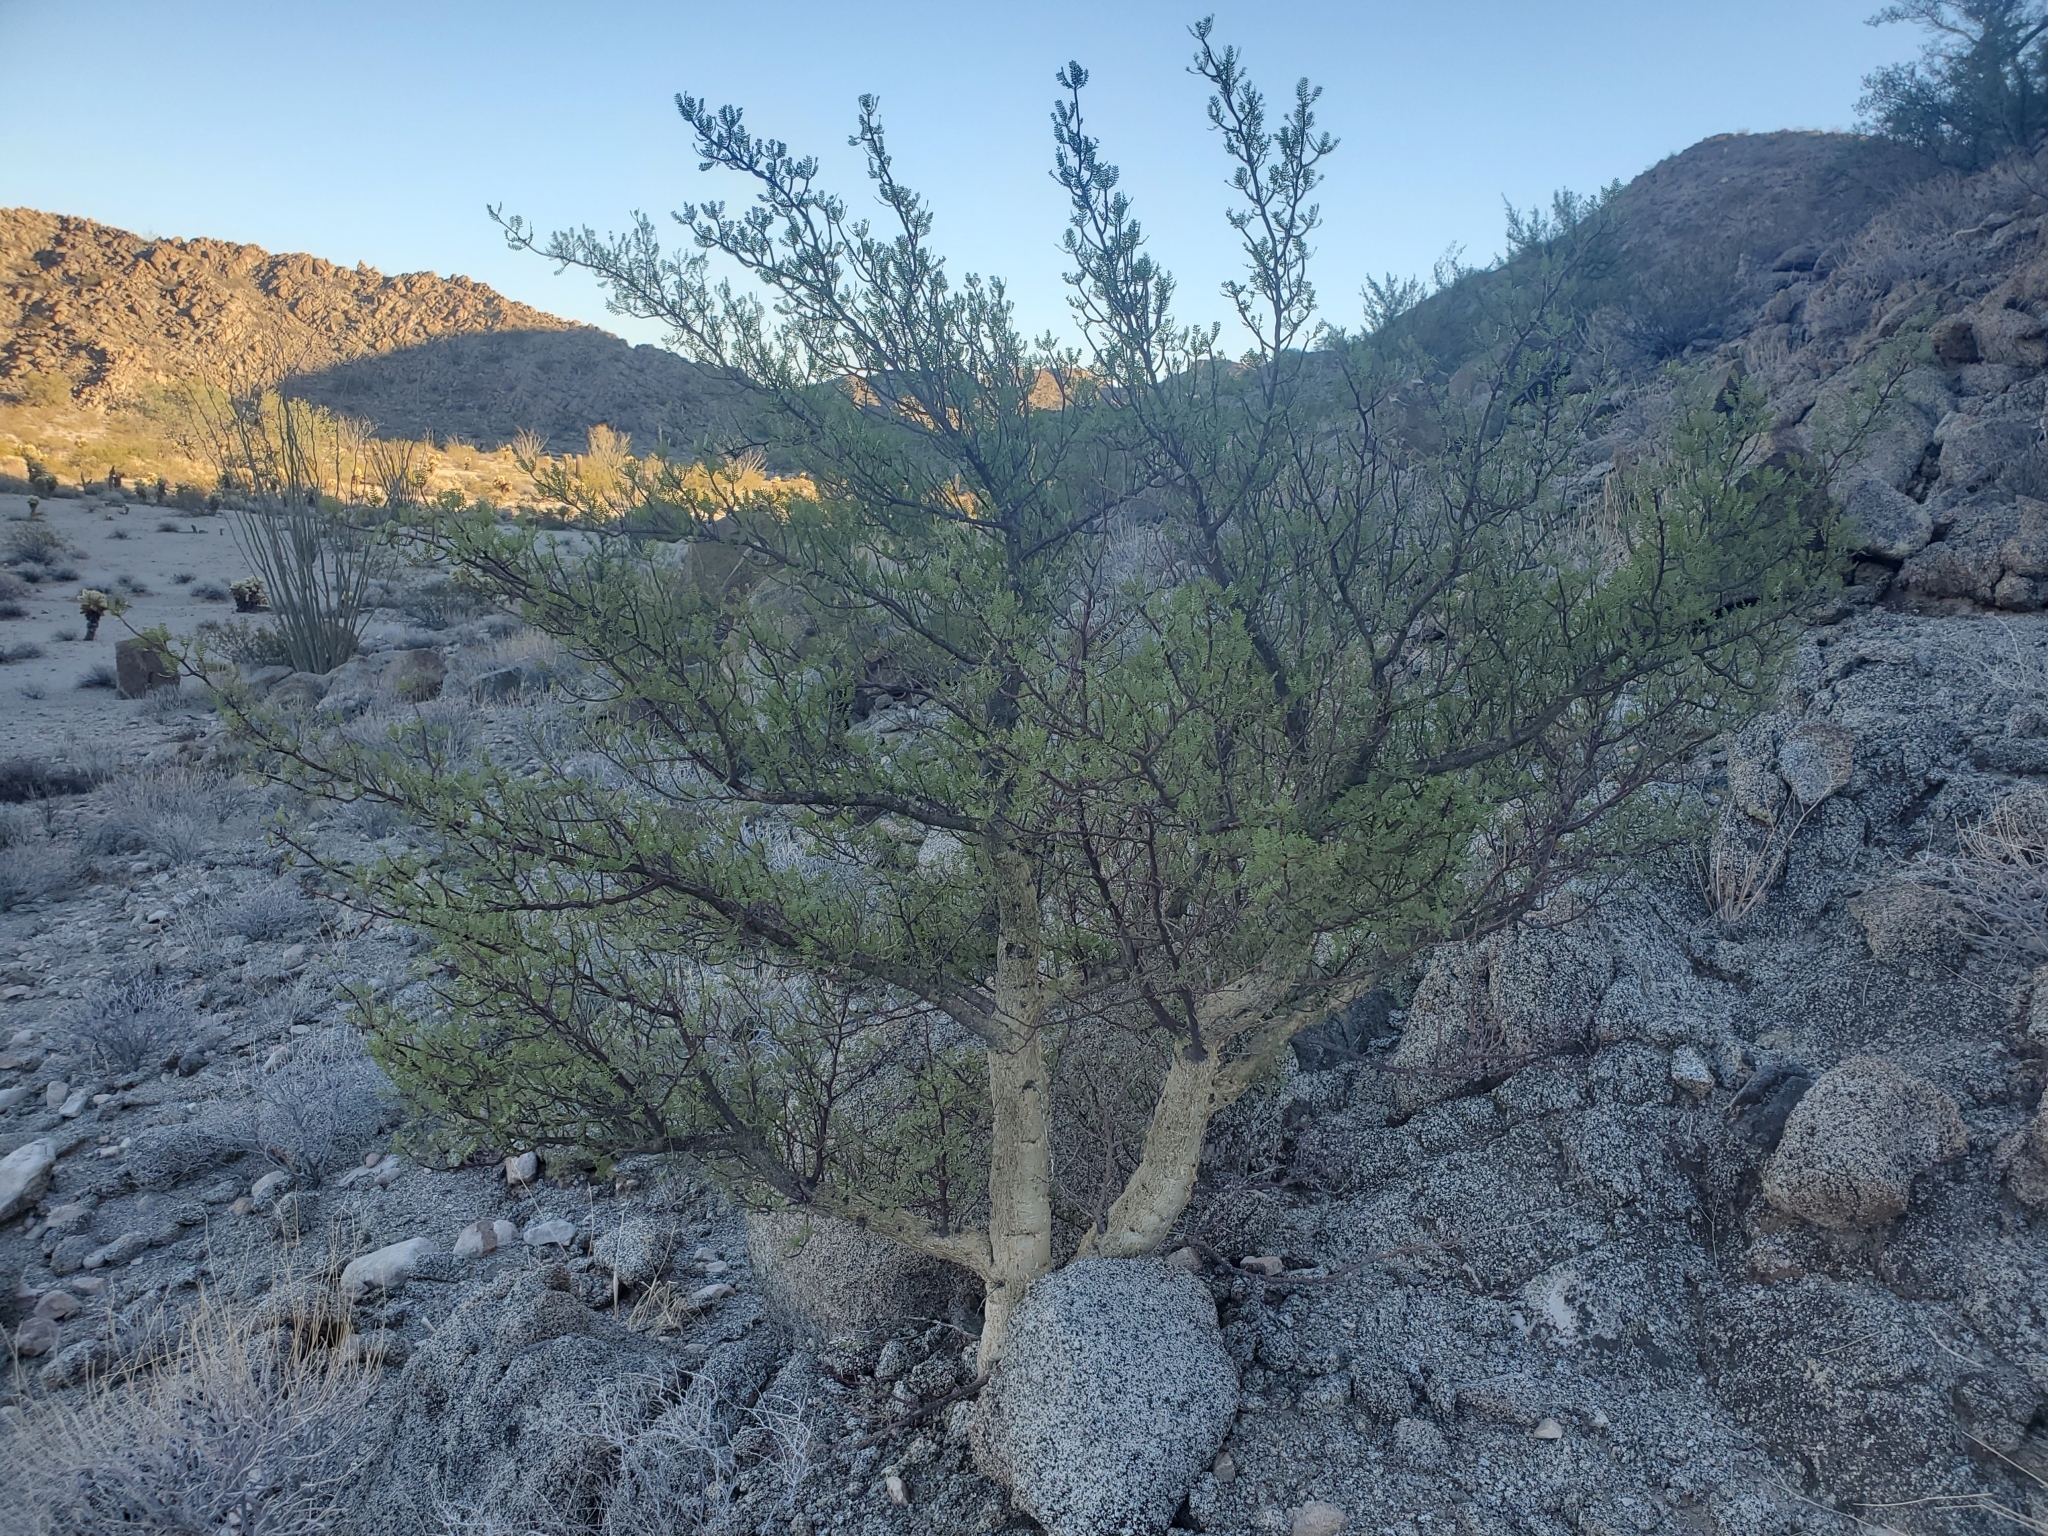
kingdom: Plantae
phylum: Tracheophyta
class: Magnoliopsida
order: Sapindales
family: Burseraceae
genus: Bursera
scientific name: Bursera microphylla
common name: Elephant tree
